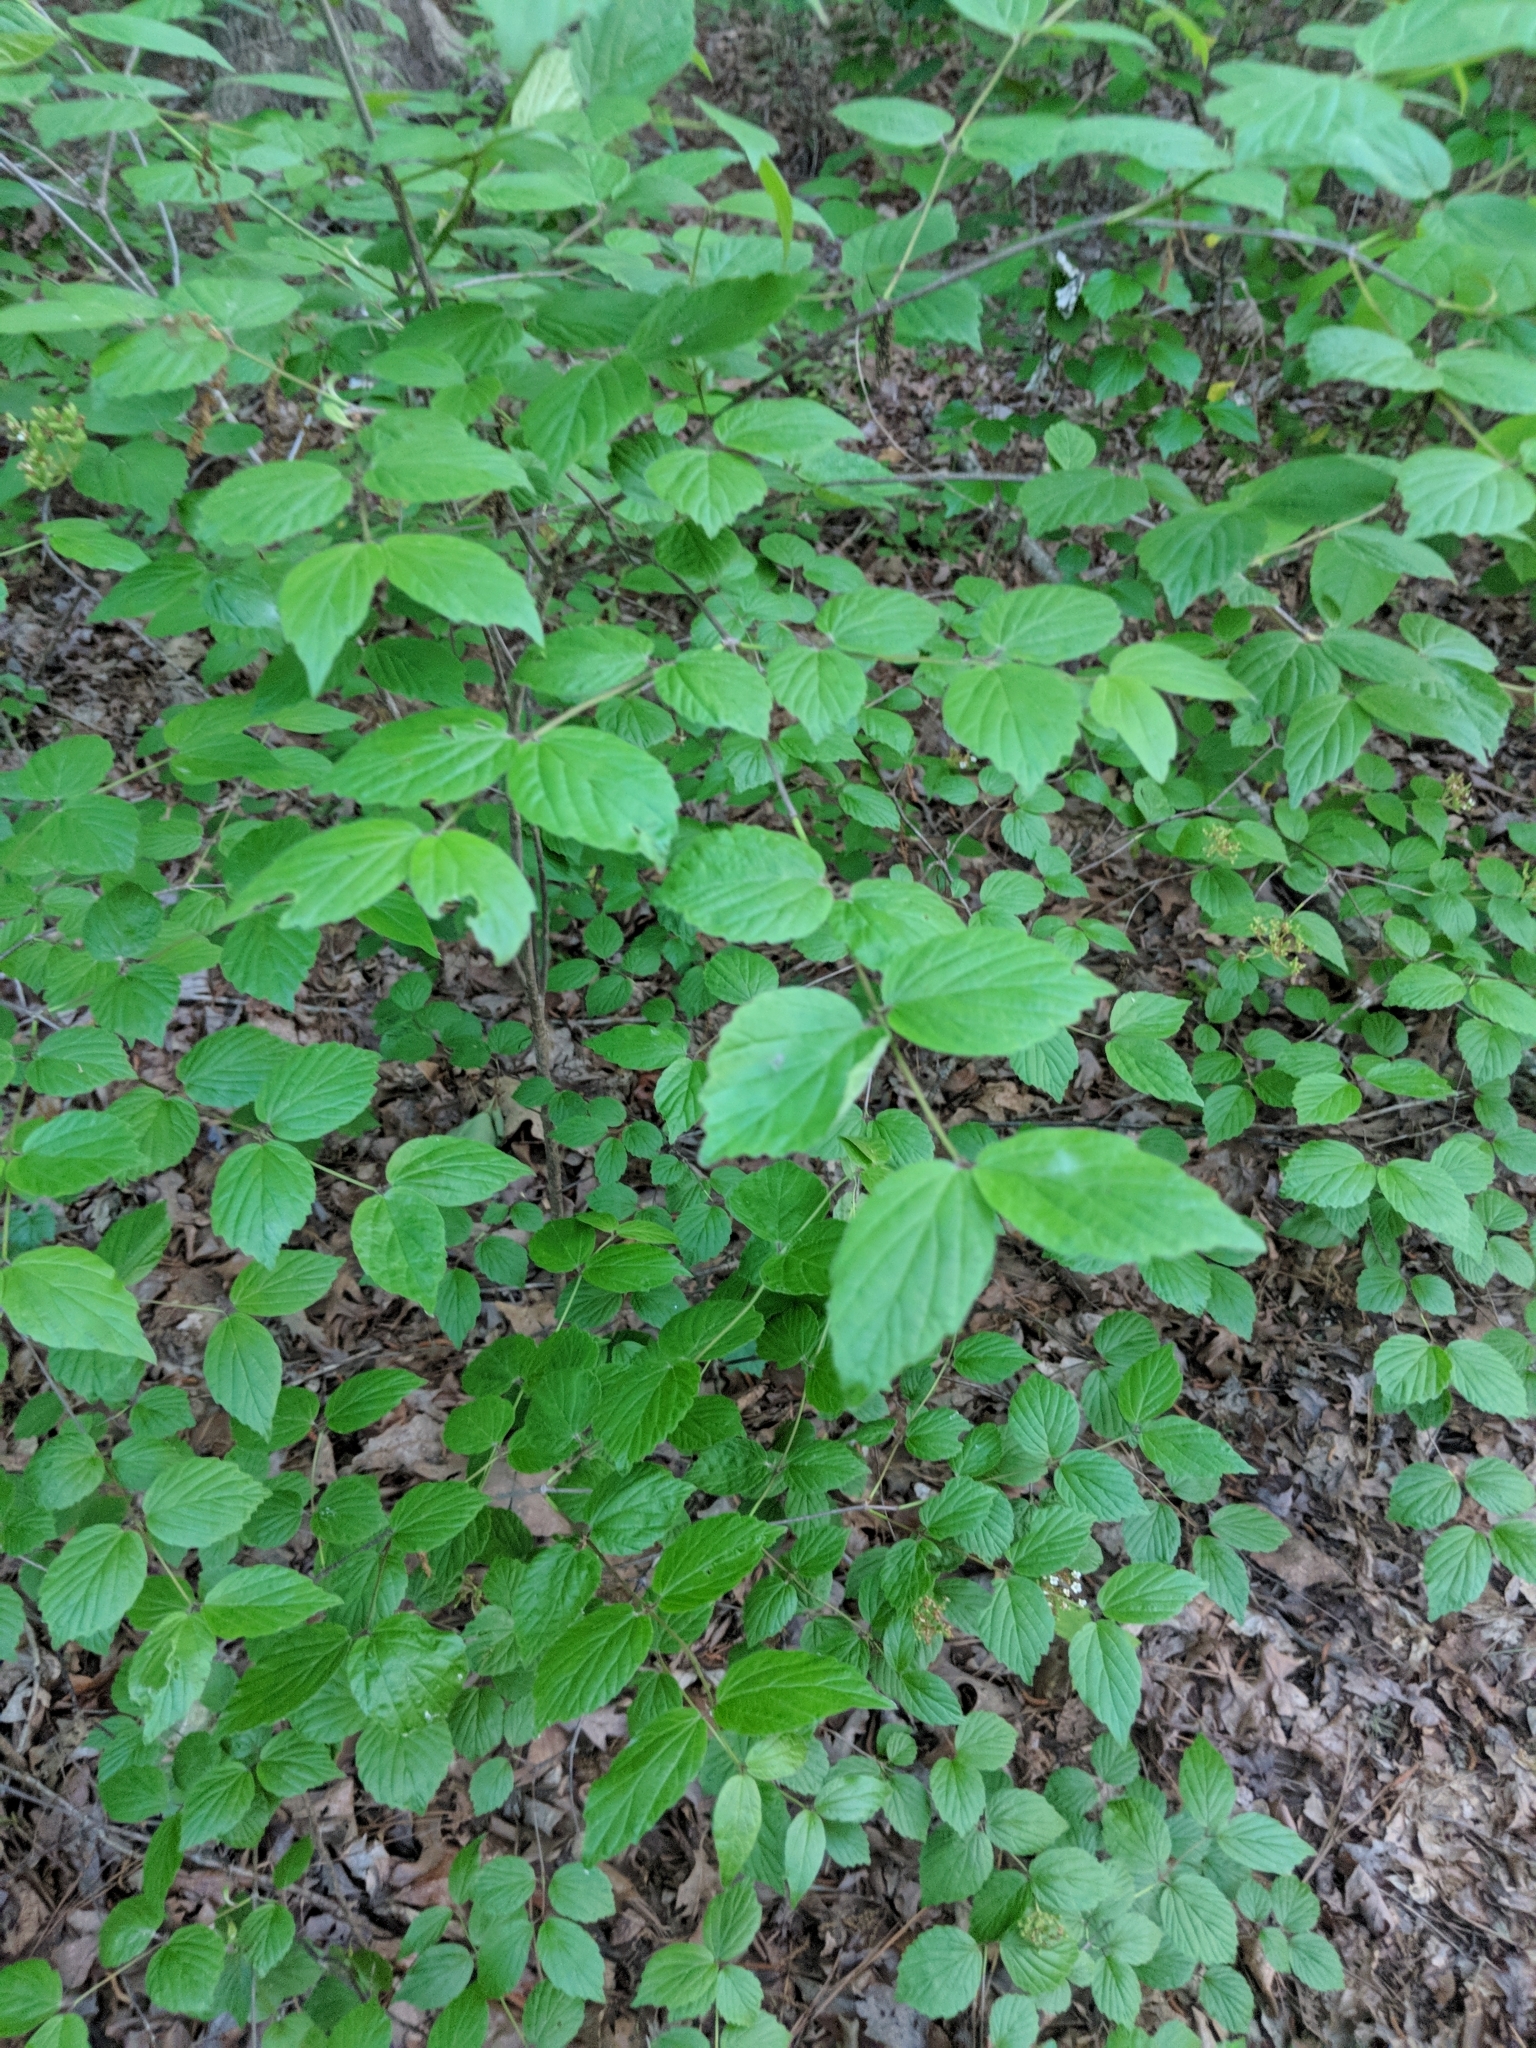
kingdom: Plantae
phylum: Tracheophyta
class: Magnoliopsida
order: Dipsacales
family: Viburnaceae
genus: Viburnum
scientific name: Viburnum rafinesqueanum
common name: Downy arrow-wood
